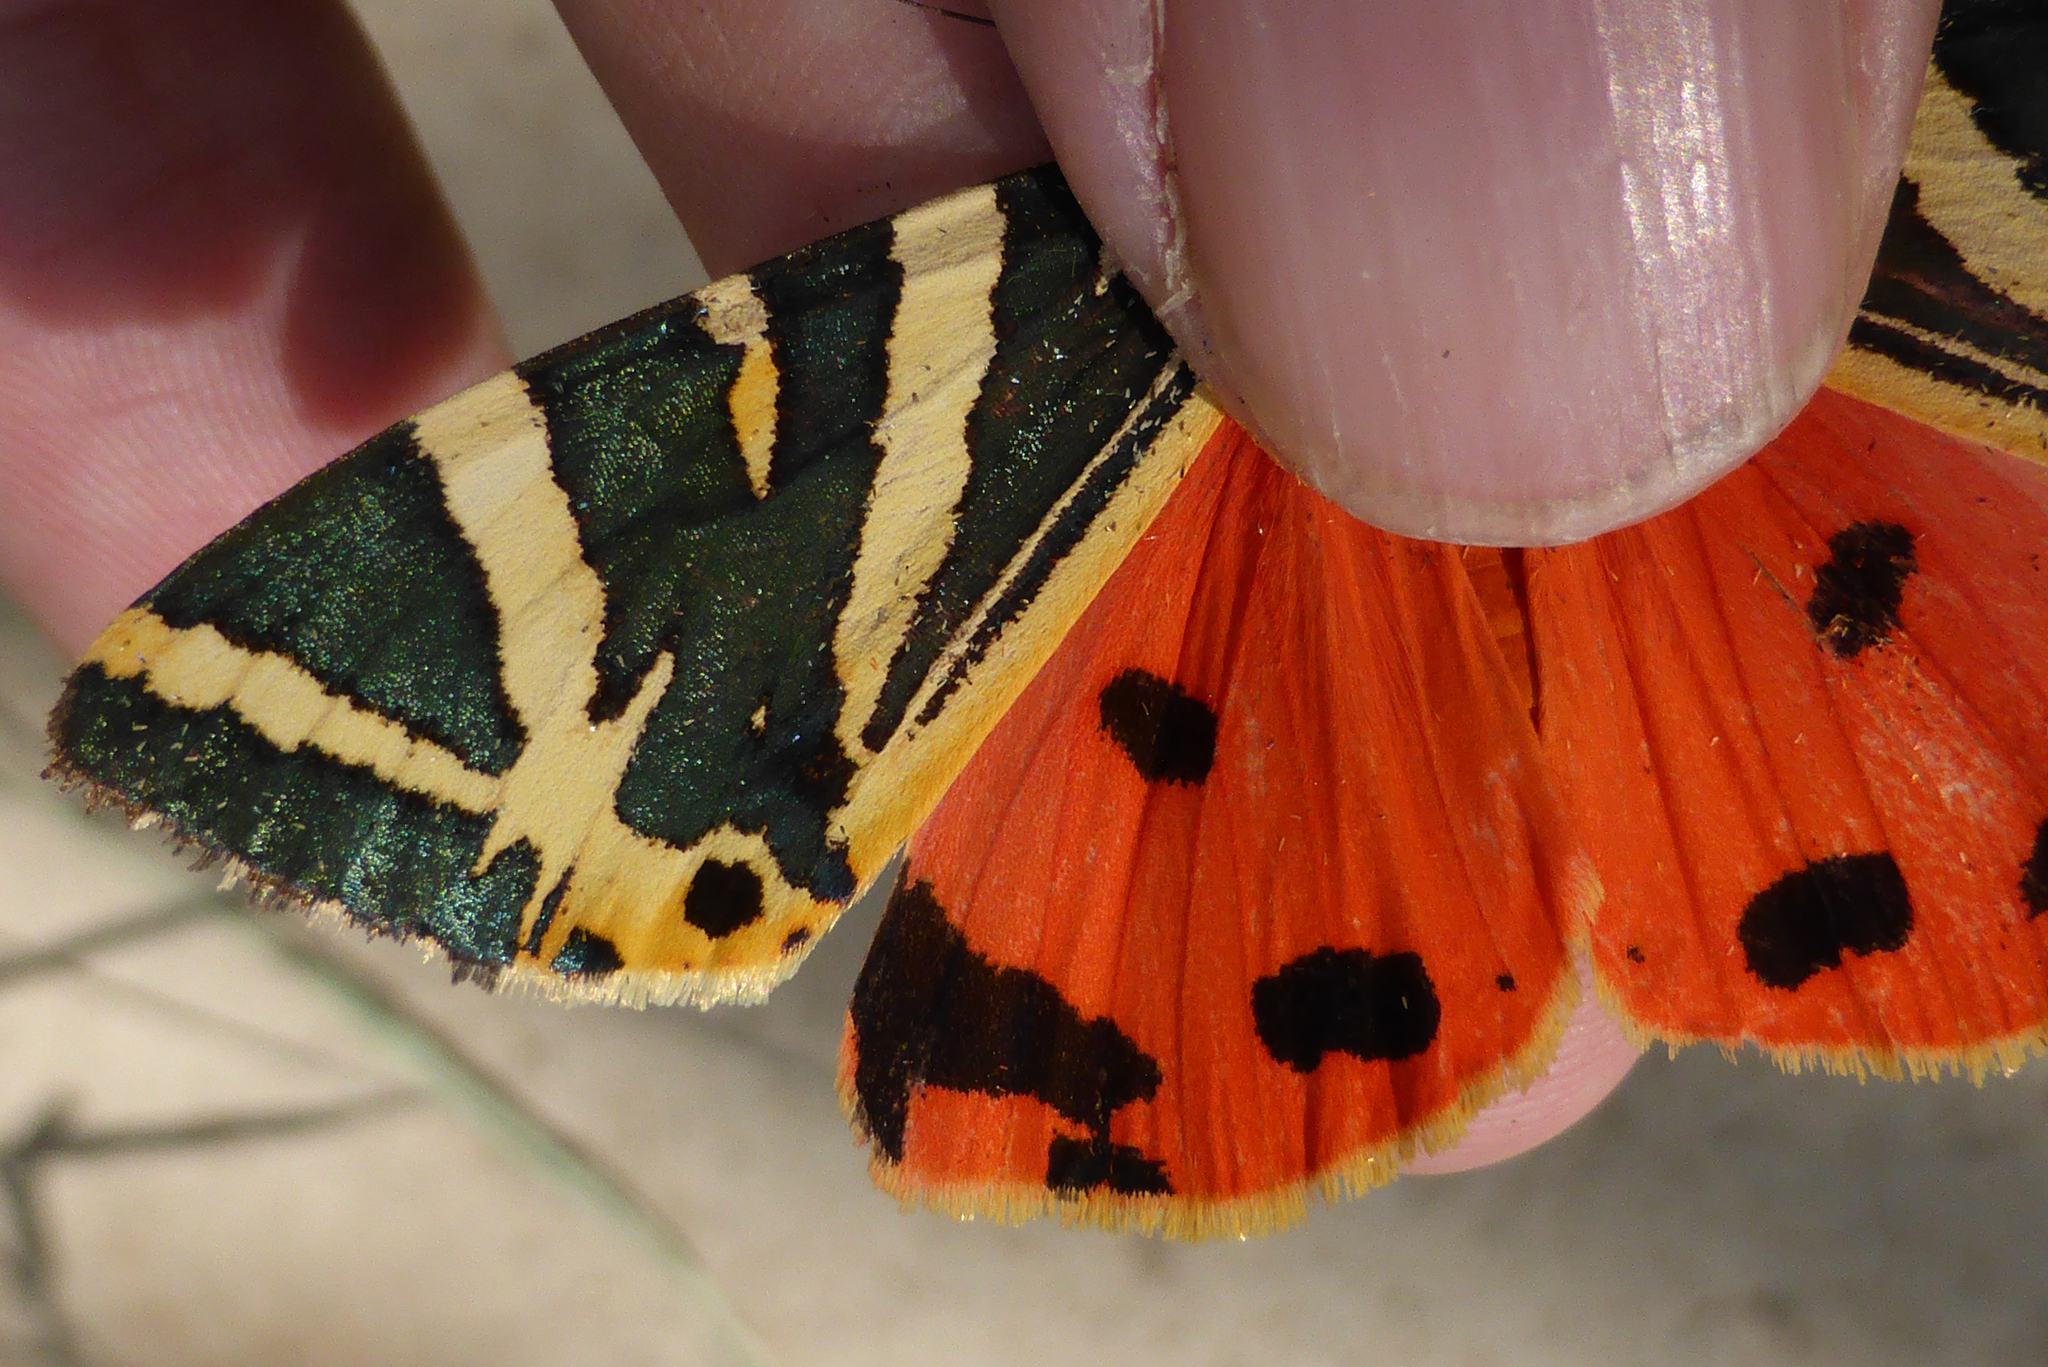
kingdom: Animalia
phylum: Arthropoda
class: Insecta
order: Lepidoptera
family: Erebidae
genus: Euplagia
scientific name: Euplagia splendidior
